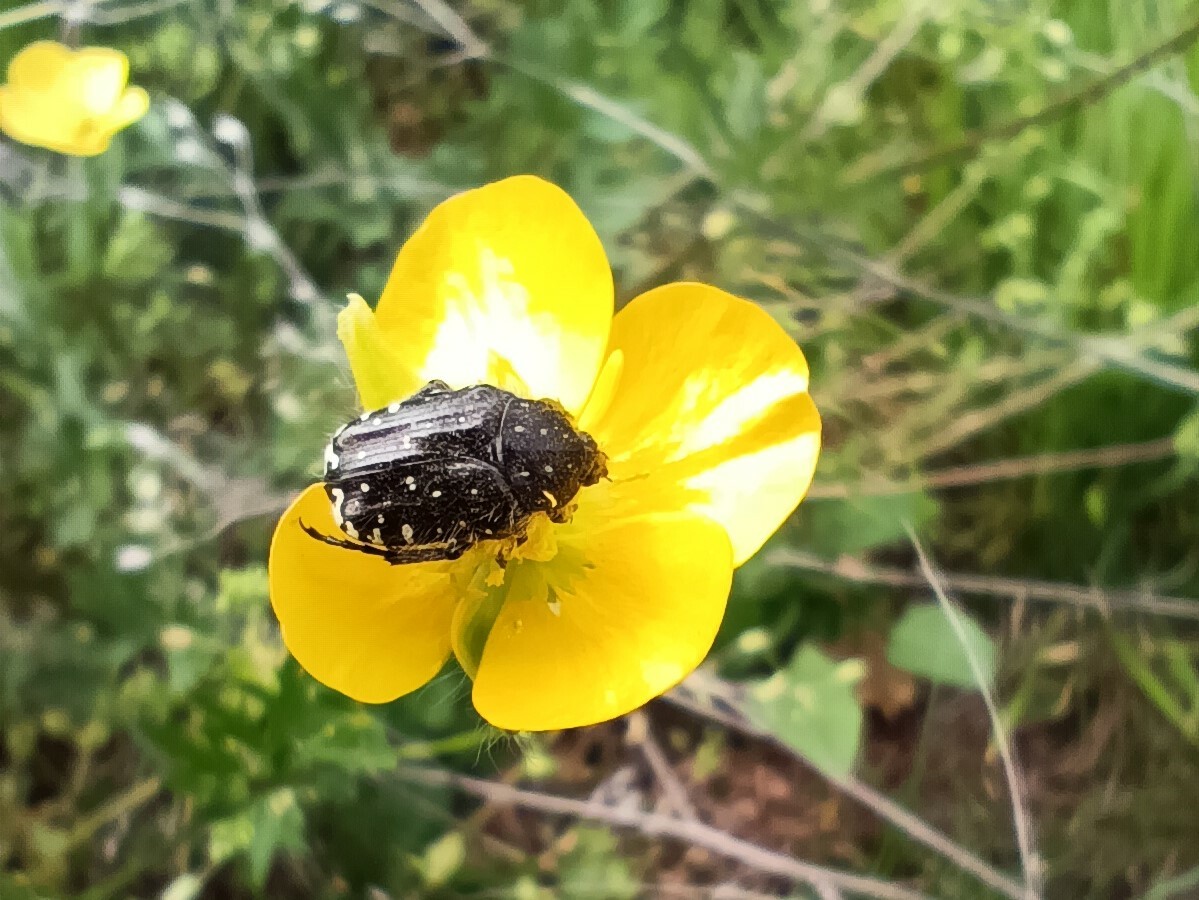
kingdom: Animalia
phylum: Arthropoda
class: Insecta
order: Coleoptera
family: Scarabaeidae
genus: Oxythyrea
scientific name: Oxythyrea funesta
